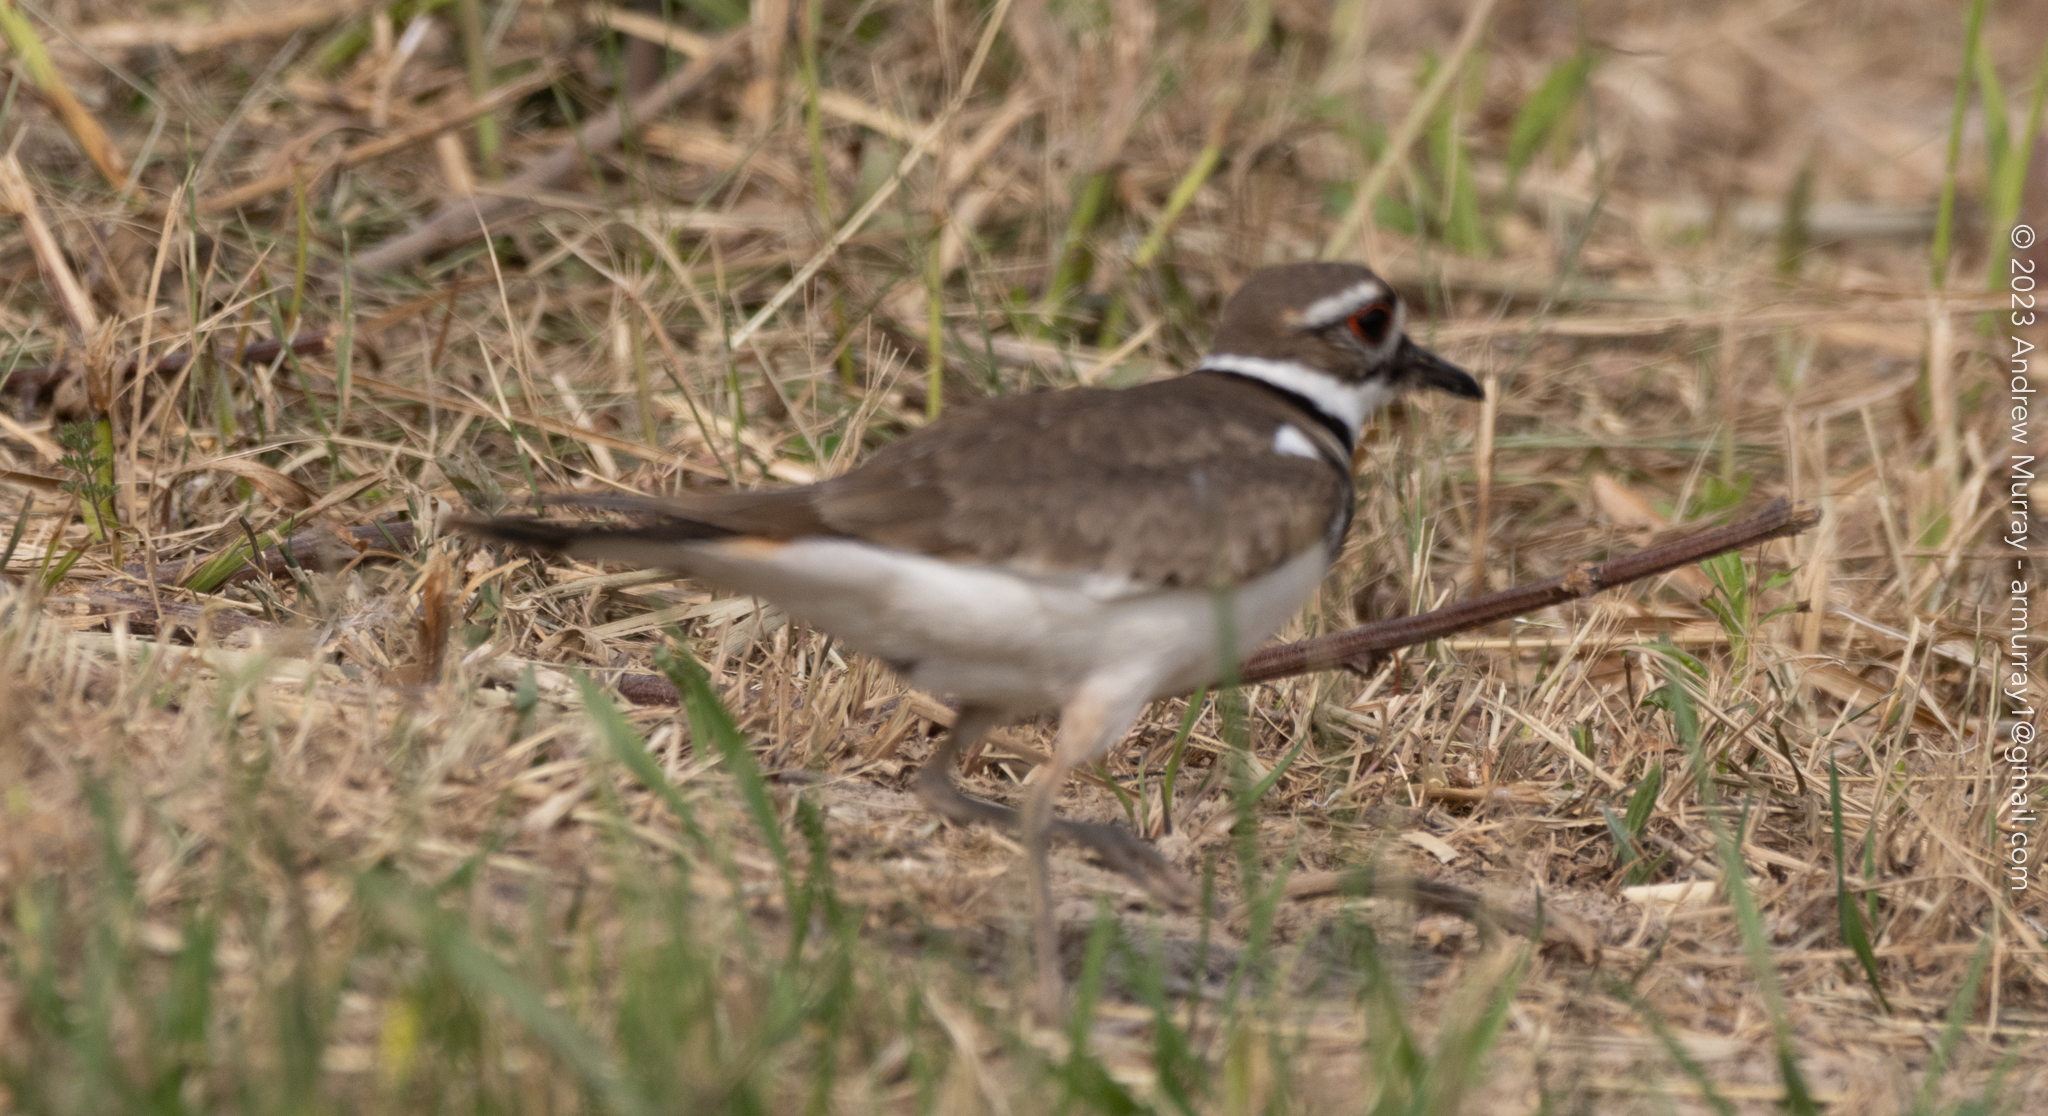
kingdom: Animalia
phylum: Chordata
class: Aves
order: Charadriiformes
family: Charadriidae
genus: Charadrius
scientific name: Charadrius vociferus
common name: Killdeer
